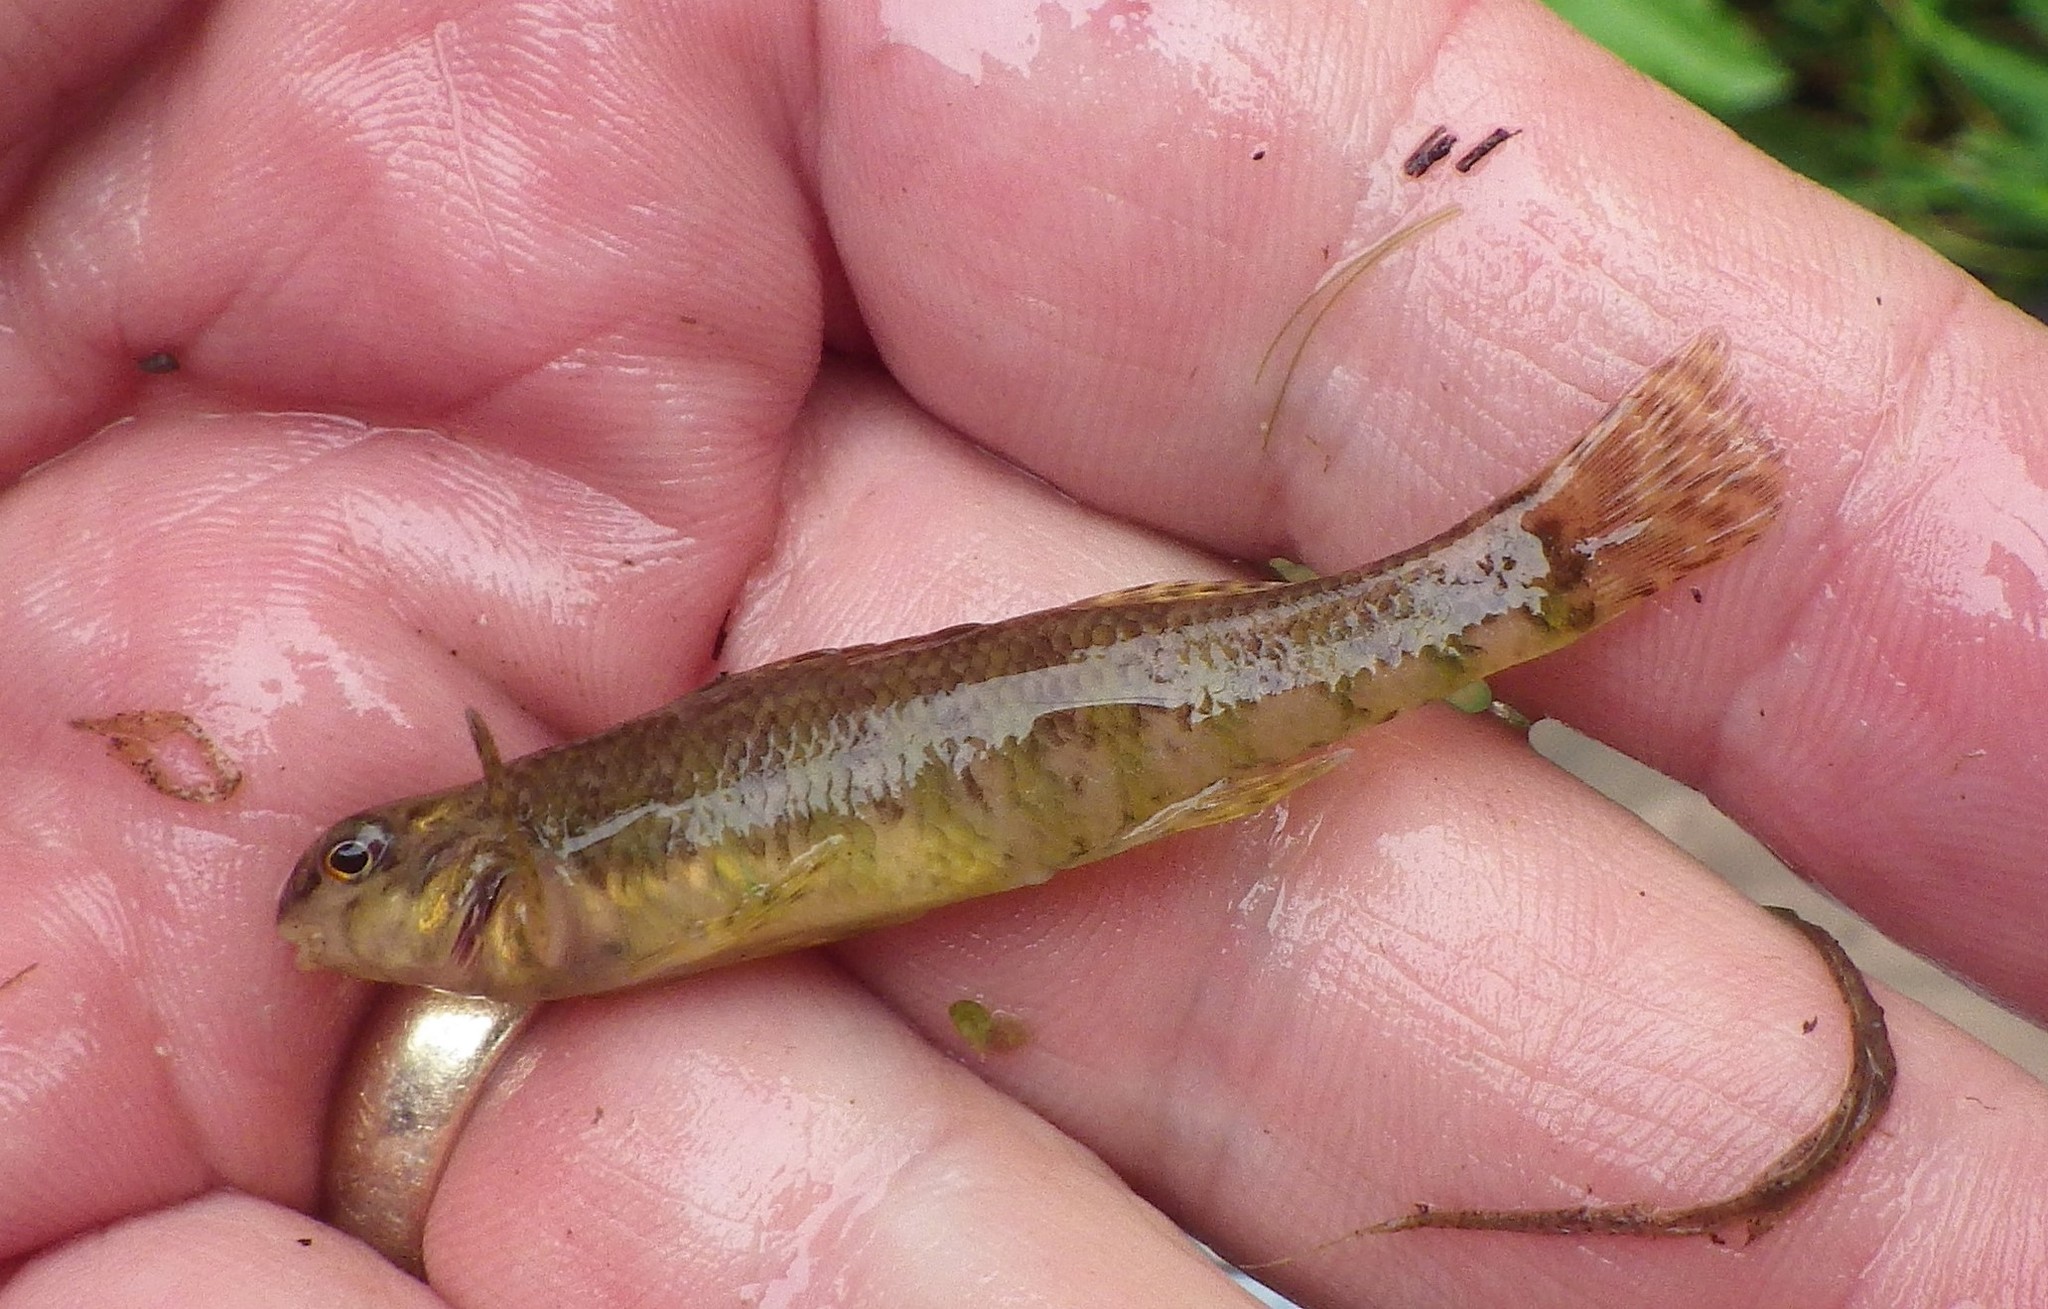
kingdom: Animalia
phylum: Chordata
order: Perciformes
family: Percidae
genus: Etheostoma
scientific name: Etheostoma zonale
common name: Banded darter
